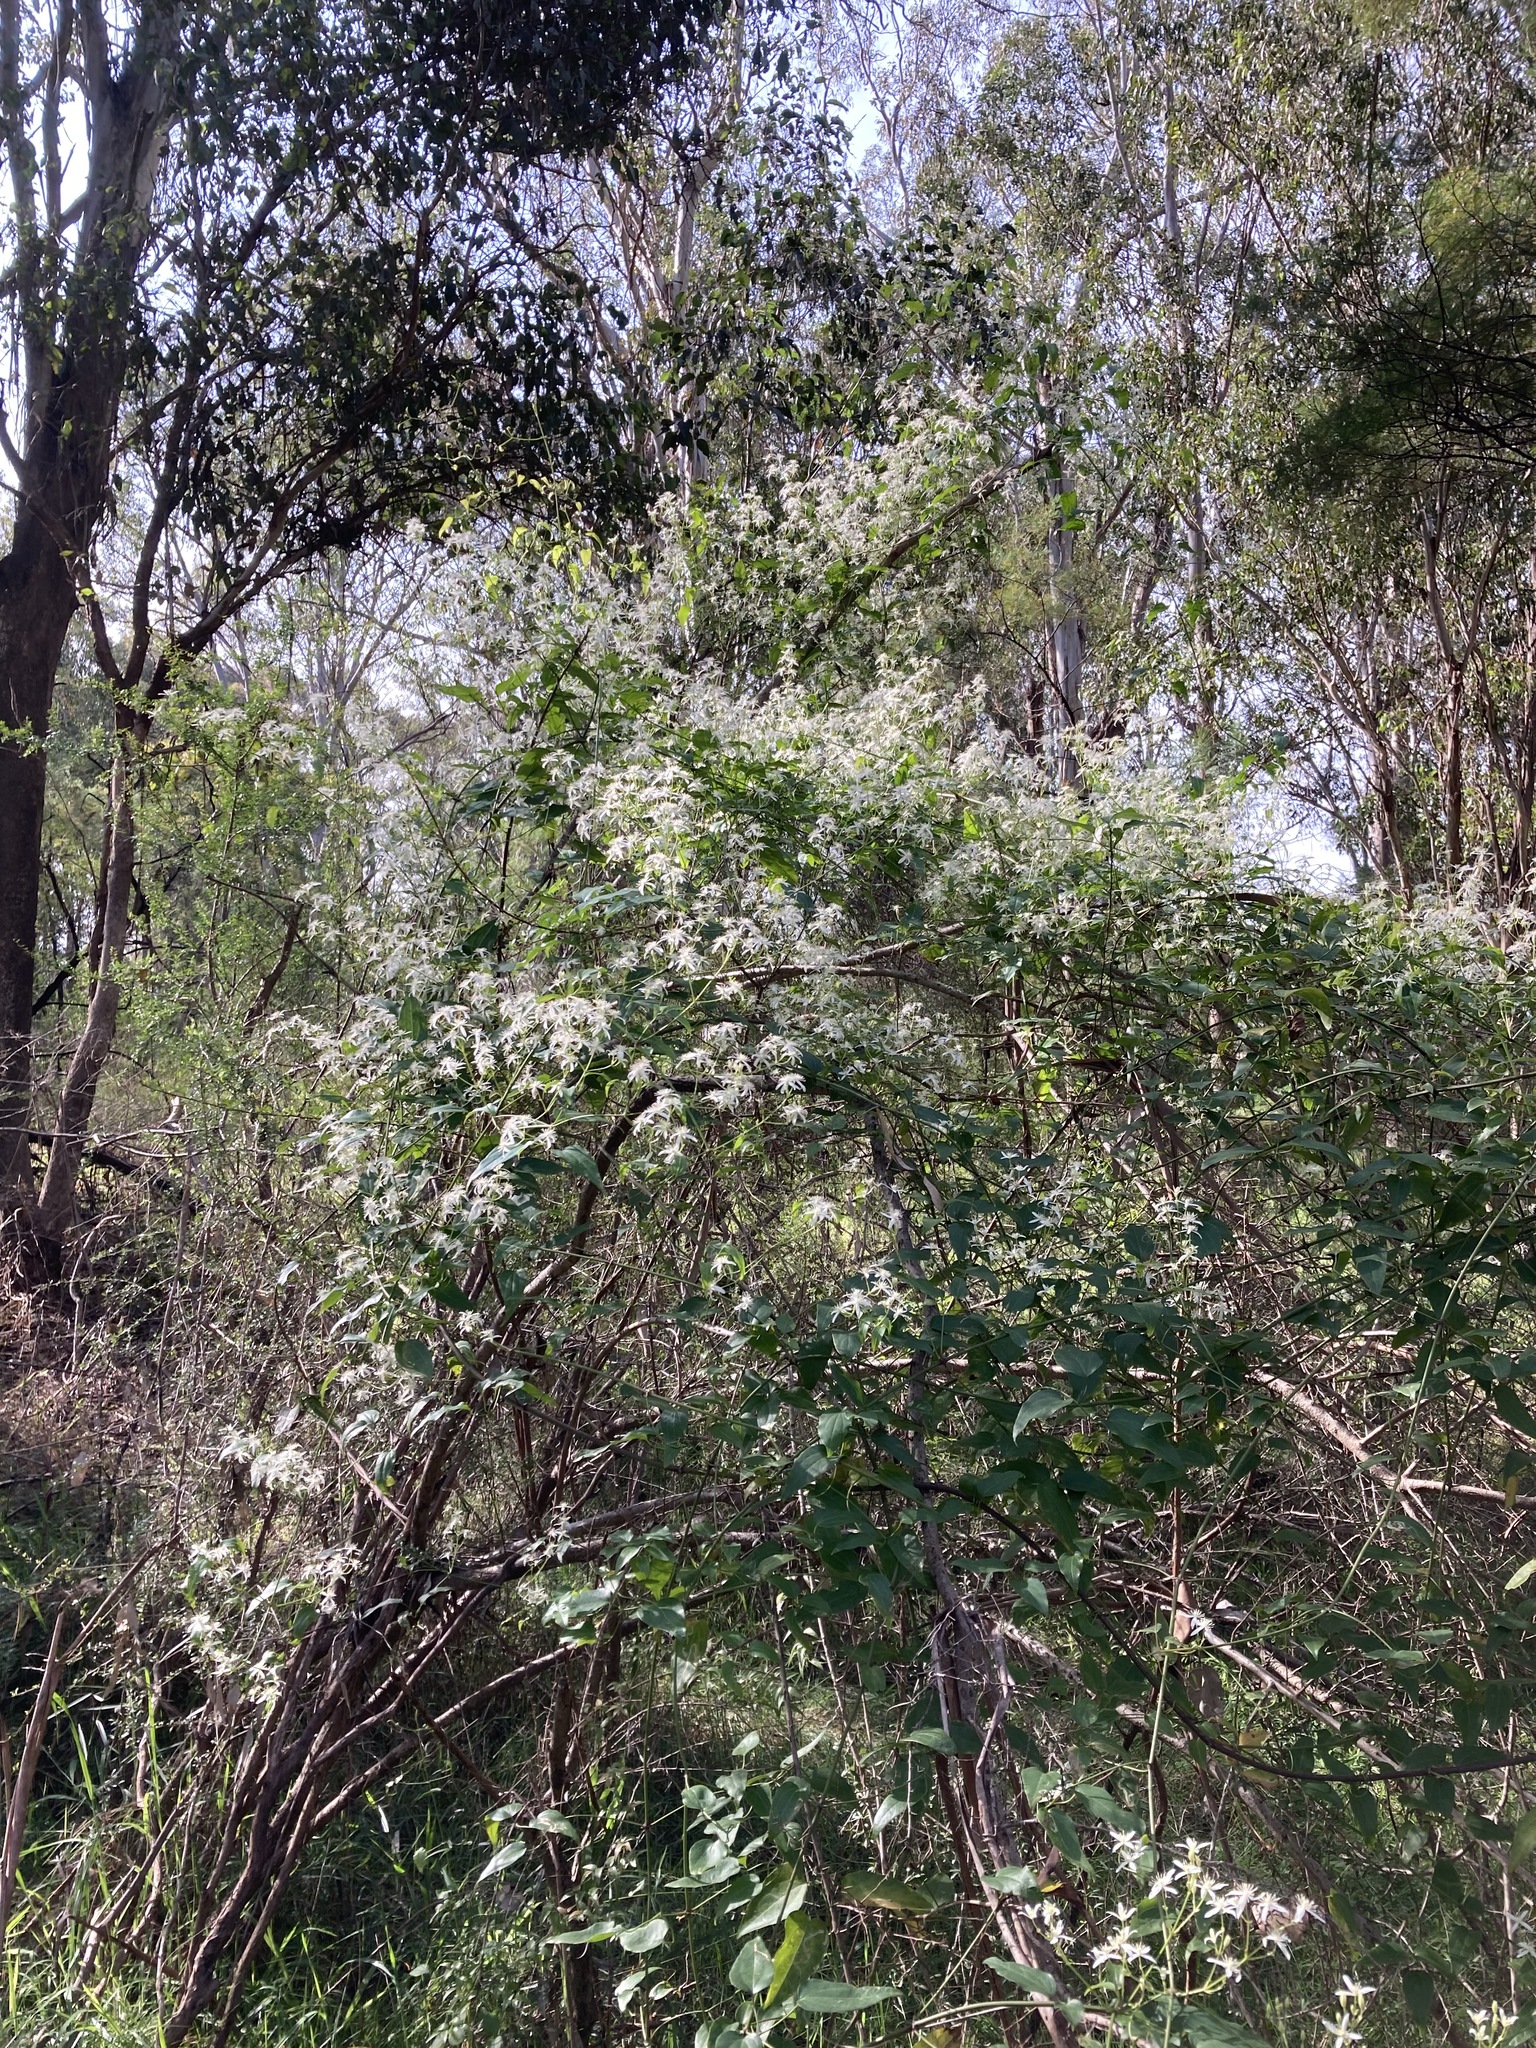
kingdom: Plantae
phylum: Tracheophyta
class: Magnoliopsida
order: Ranunculales
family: Ranunculaceae
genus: Clematis
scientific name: Clematis glycinoides
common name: Forest clematis
